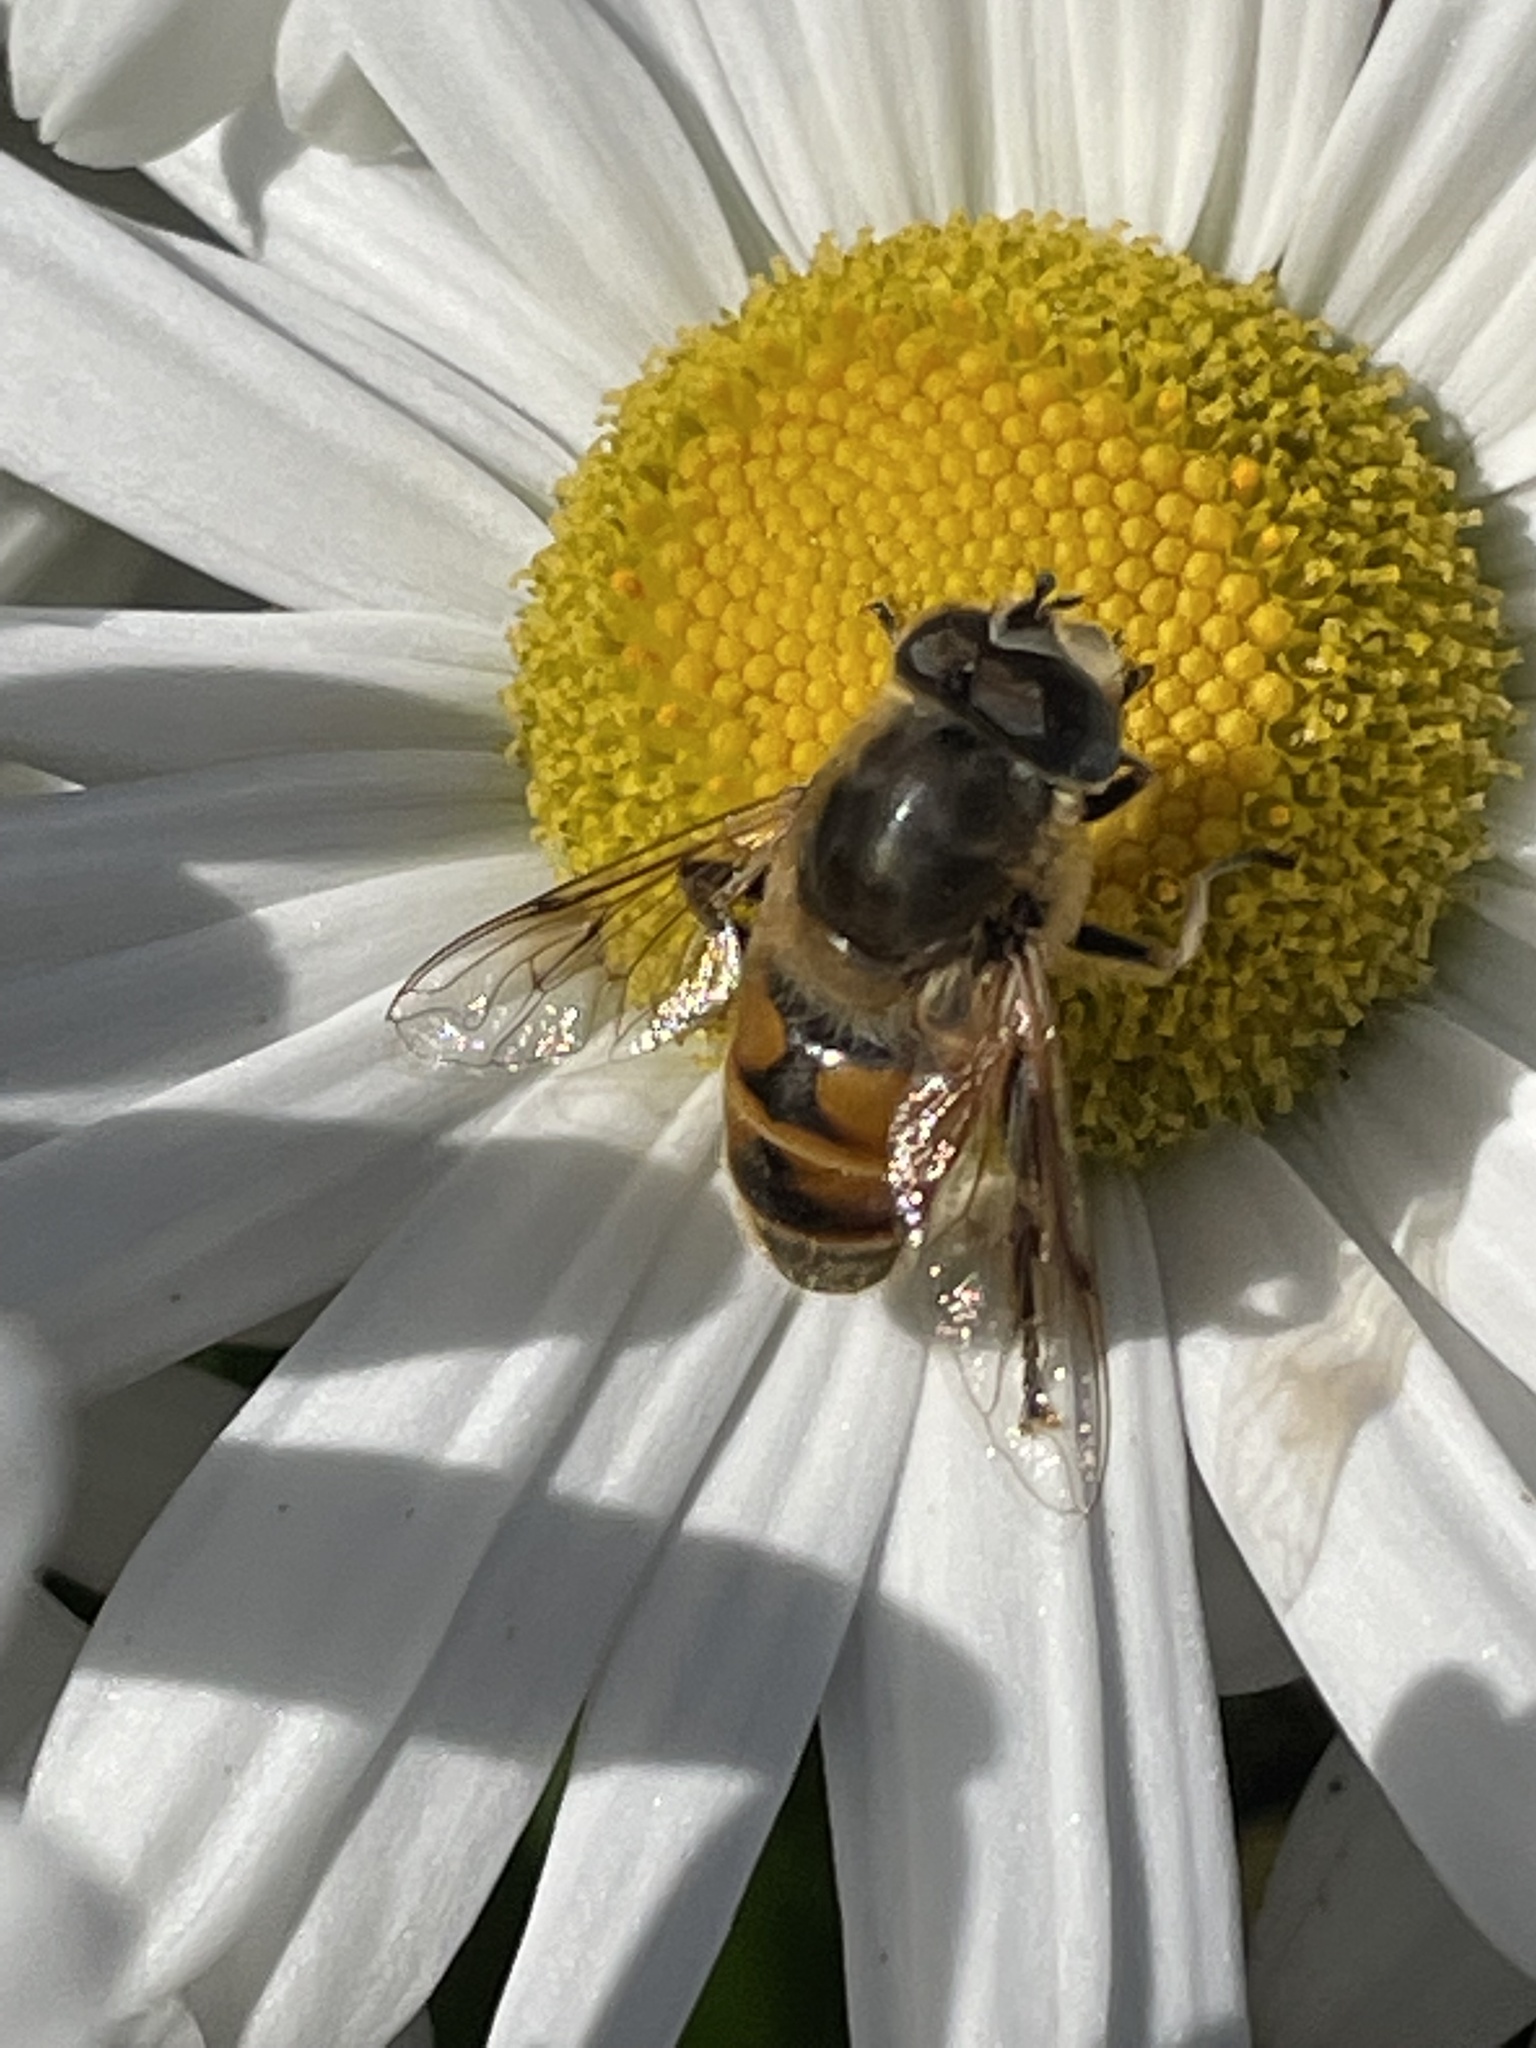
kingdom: Animalia
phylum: Arthropoda
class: Insecta
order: Diptera
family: Syrphidae
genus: Eristalis
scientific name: Eristalis tenax
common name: Drone fly
